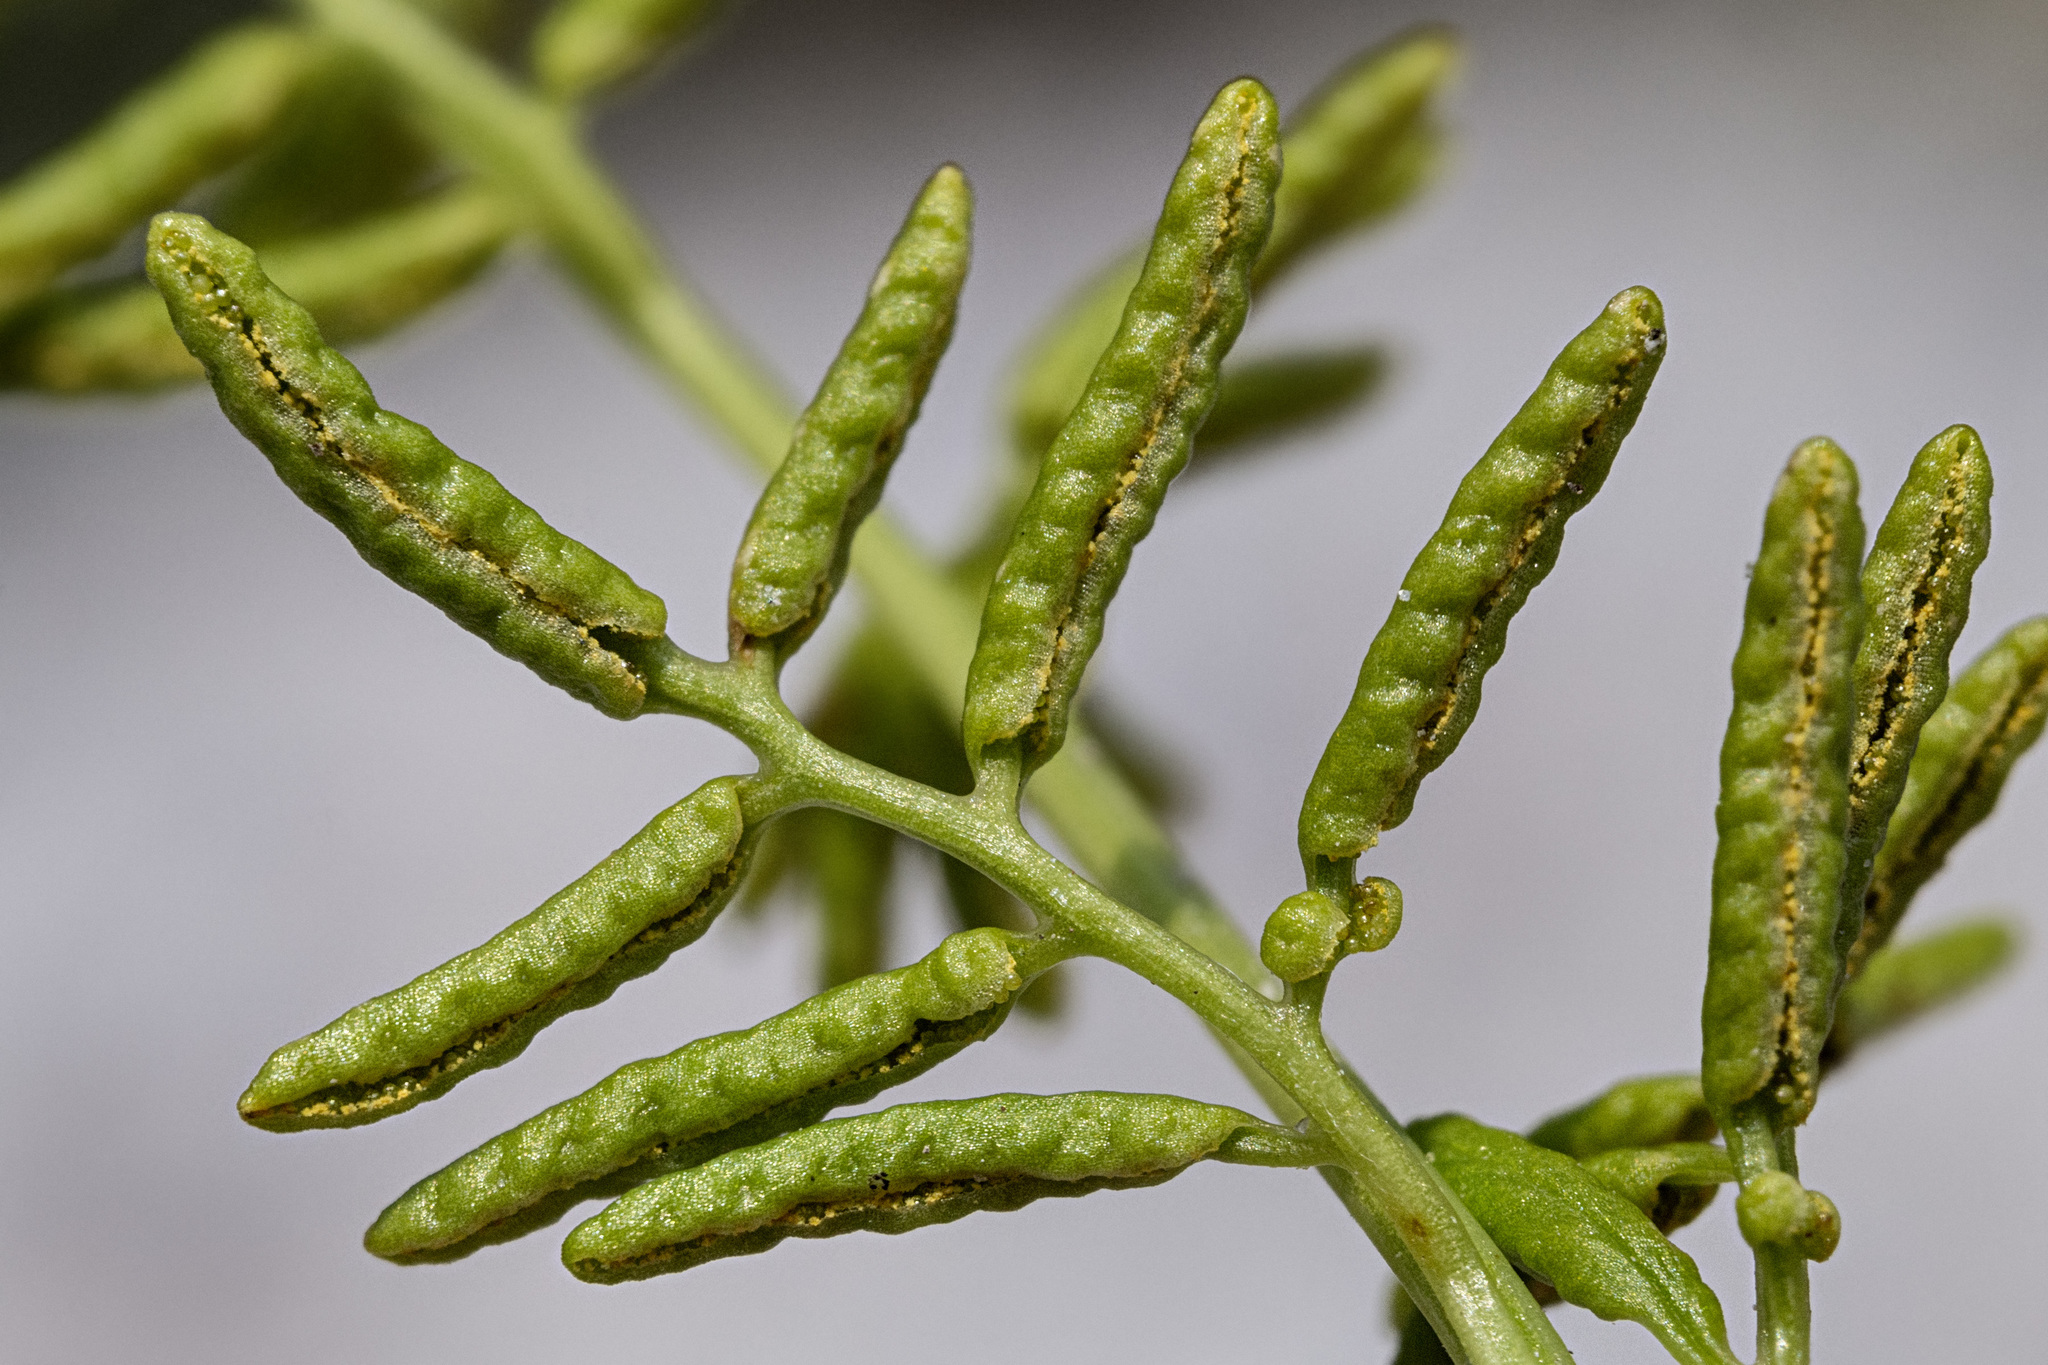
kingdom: Plantae
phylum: Tracheophyta
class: Polypodiopsida
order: Polypodiales
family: Pteridaceae
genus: Cryptogramma
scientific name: Cryptogramma acrostichoides
